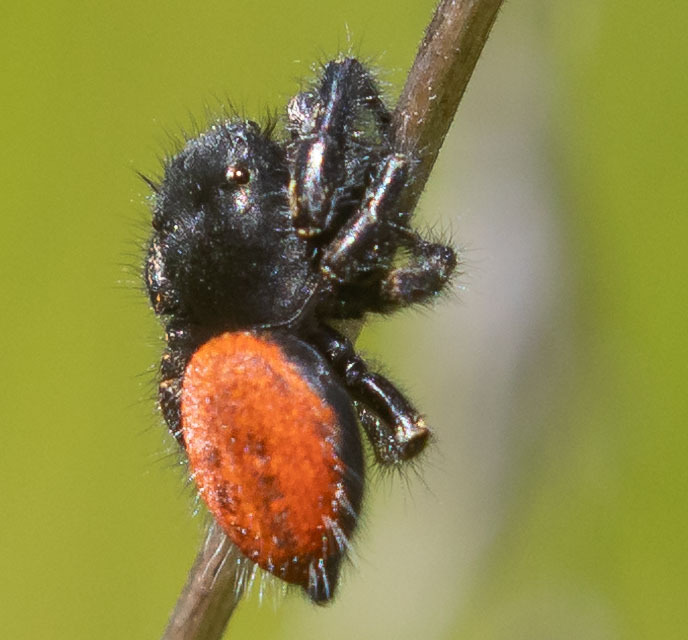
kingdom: Animalia
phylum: Arthropoda
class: Arachnida
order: Araneae
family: Salticidae
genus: Phidippus
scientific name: Phidippus johnsoni
